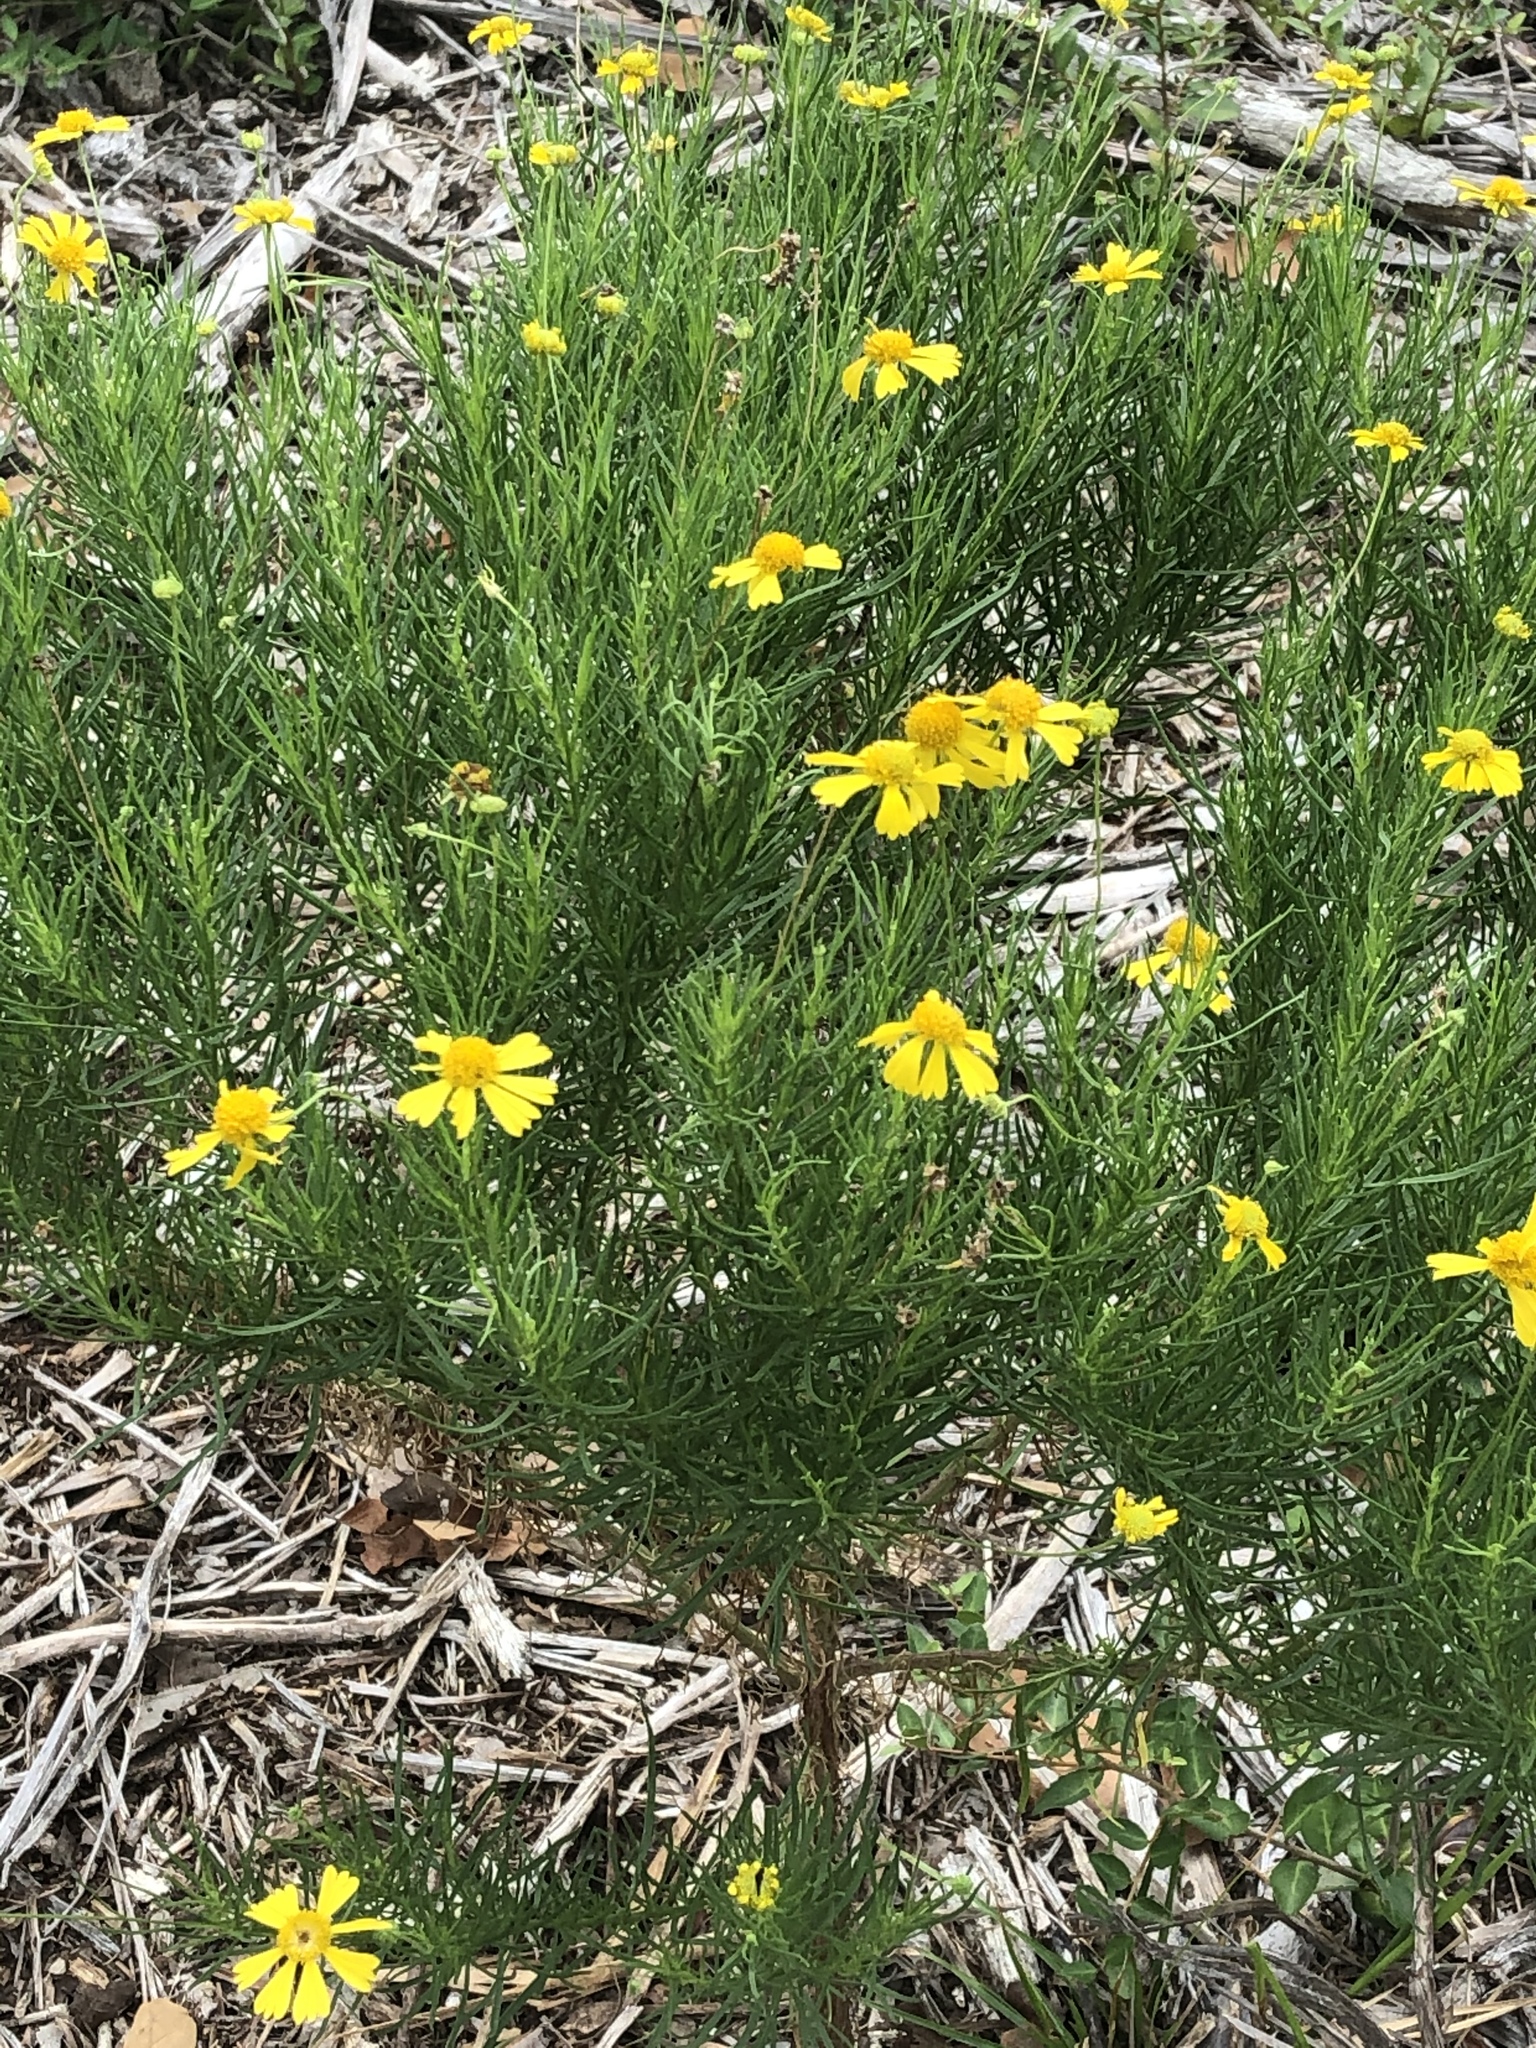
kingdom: Plantae
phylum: Tracheophyta
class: Magnoliopsida
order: Asterales
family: Asteraceae
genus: Helenium
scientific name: Helenium amarum
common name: Bitter sneezeweed
